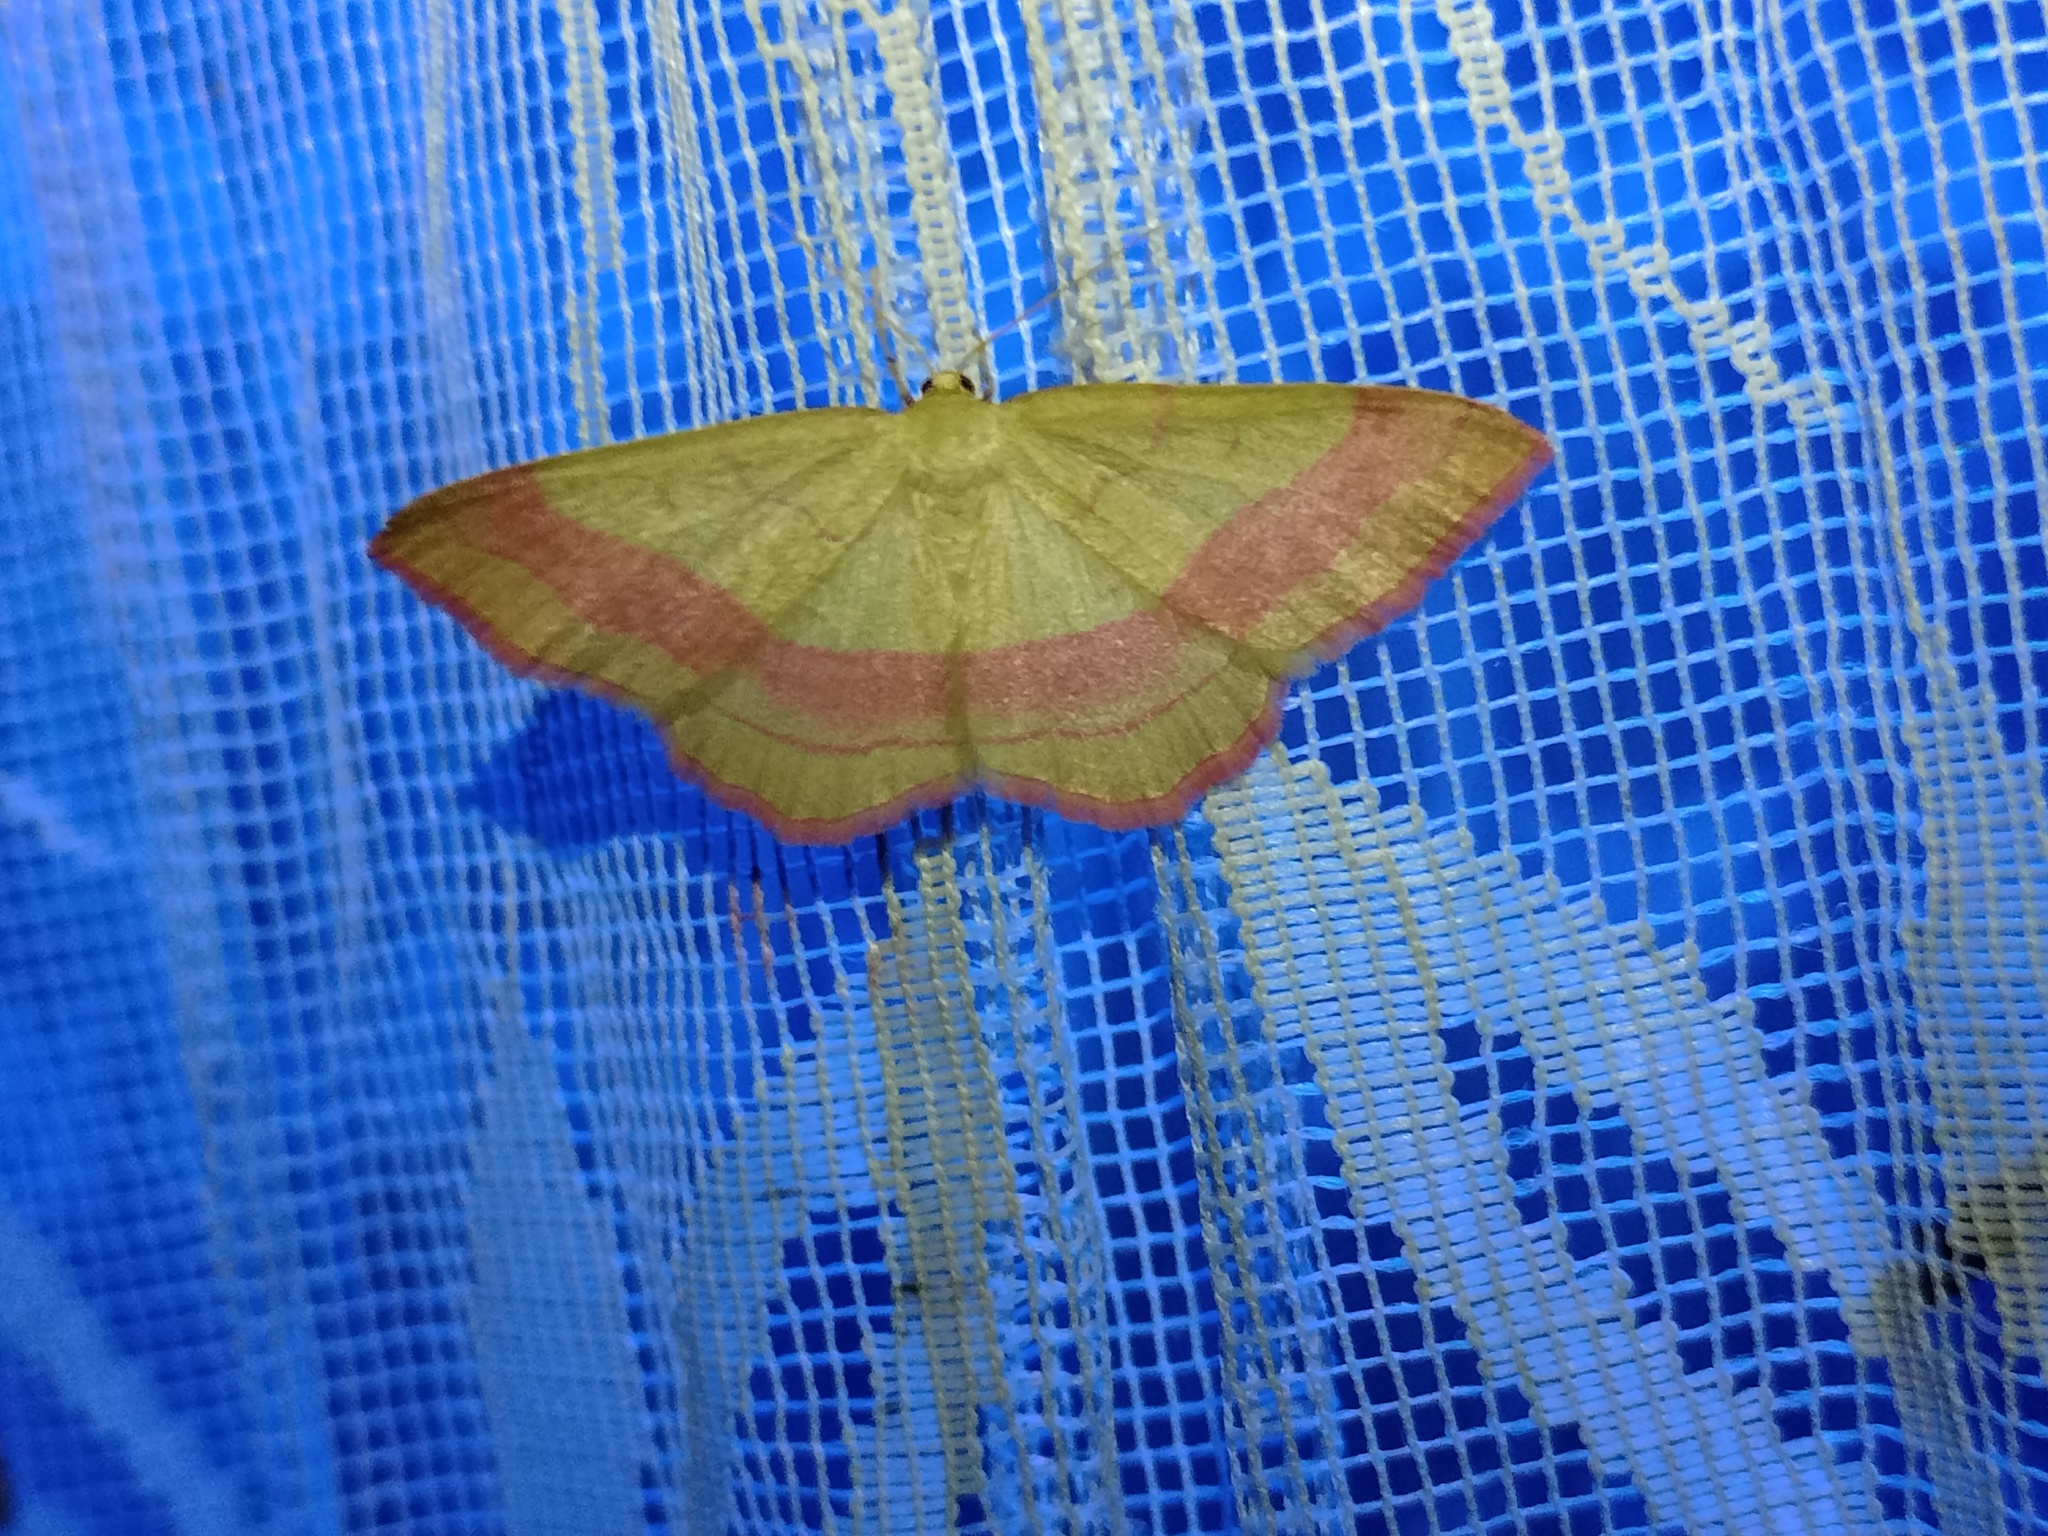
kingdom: Animalia
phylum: Arthropoda
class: Insecta
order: Lepidoptera
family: Geometridae
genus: Rhodostrophia
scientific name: Rhodostrophia vibicaria
